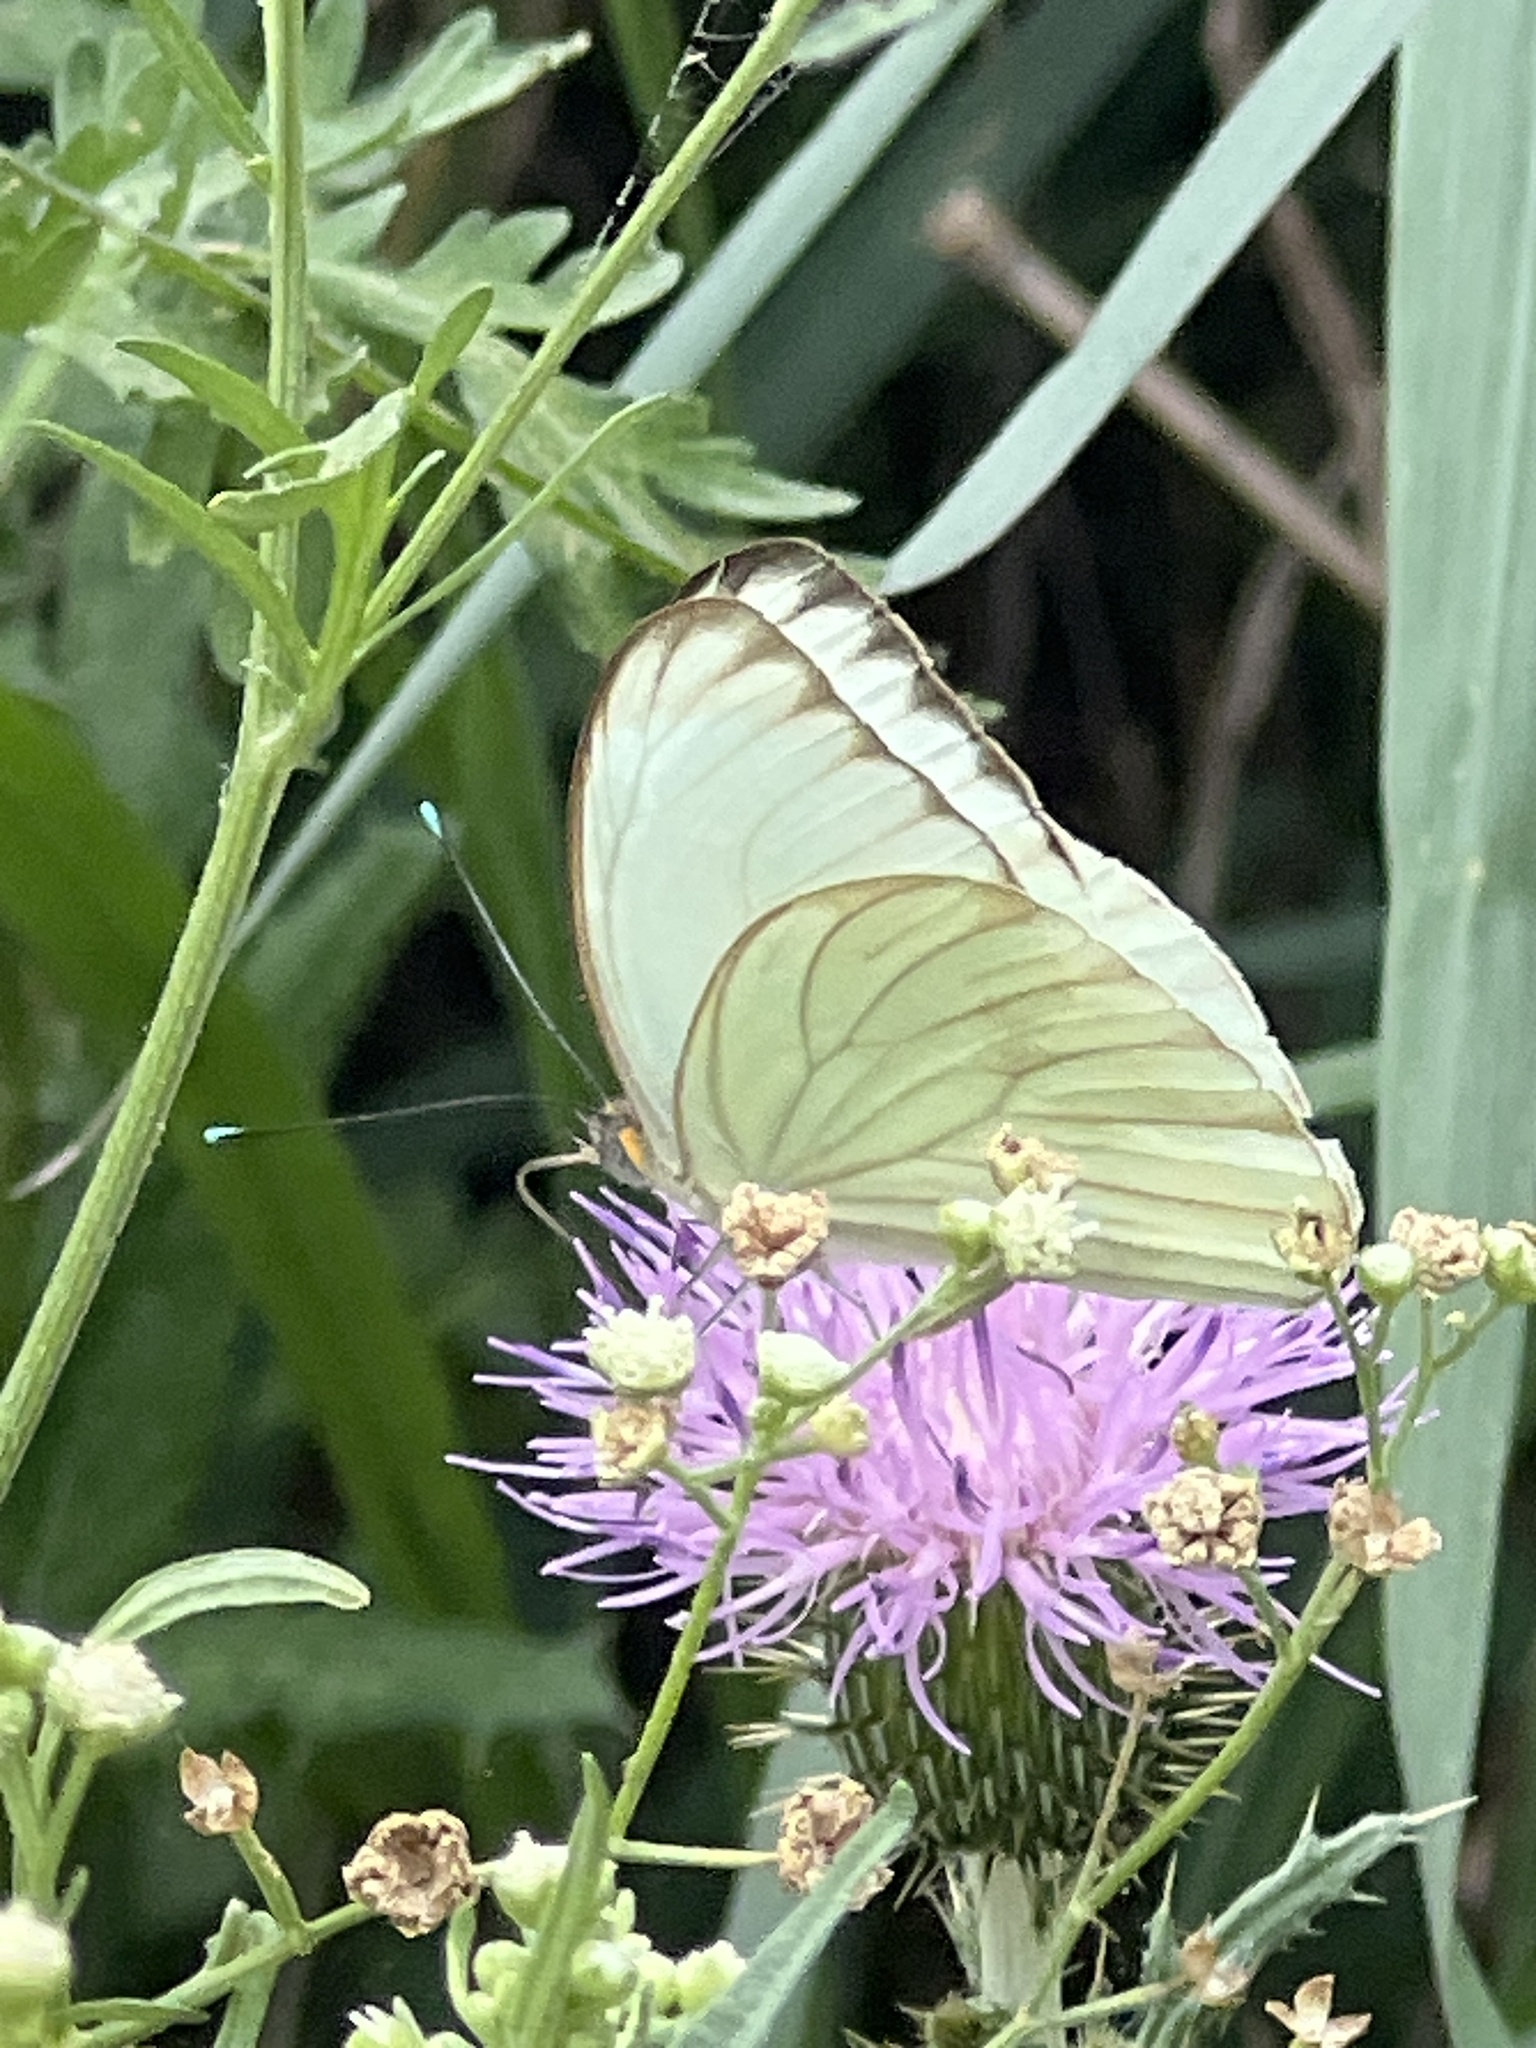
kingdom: Animalia
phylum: Arthropoda
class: Insecta
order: Lepidoptera
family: Pieridae
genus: Ascia
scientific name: Ascia monuste
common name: Great southern white
